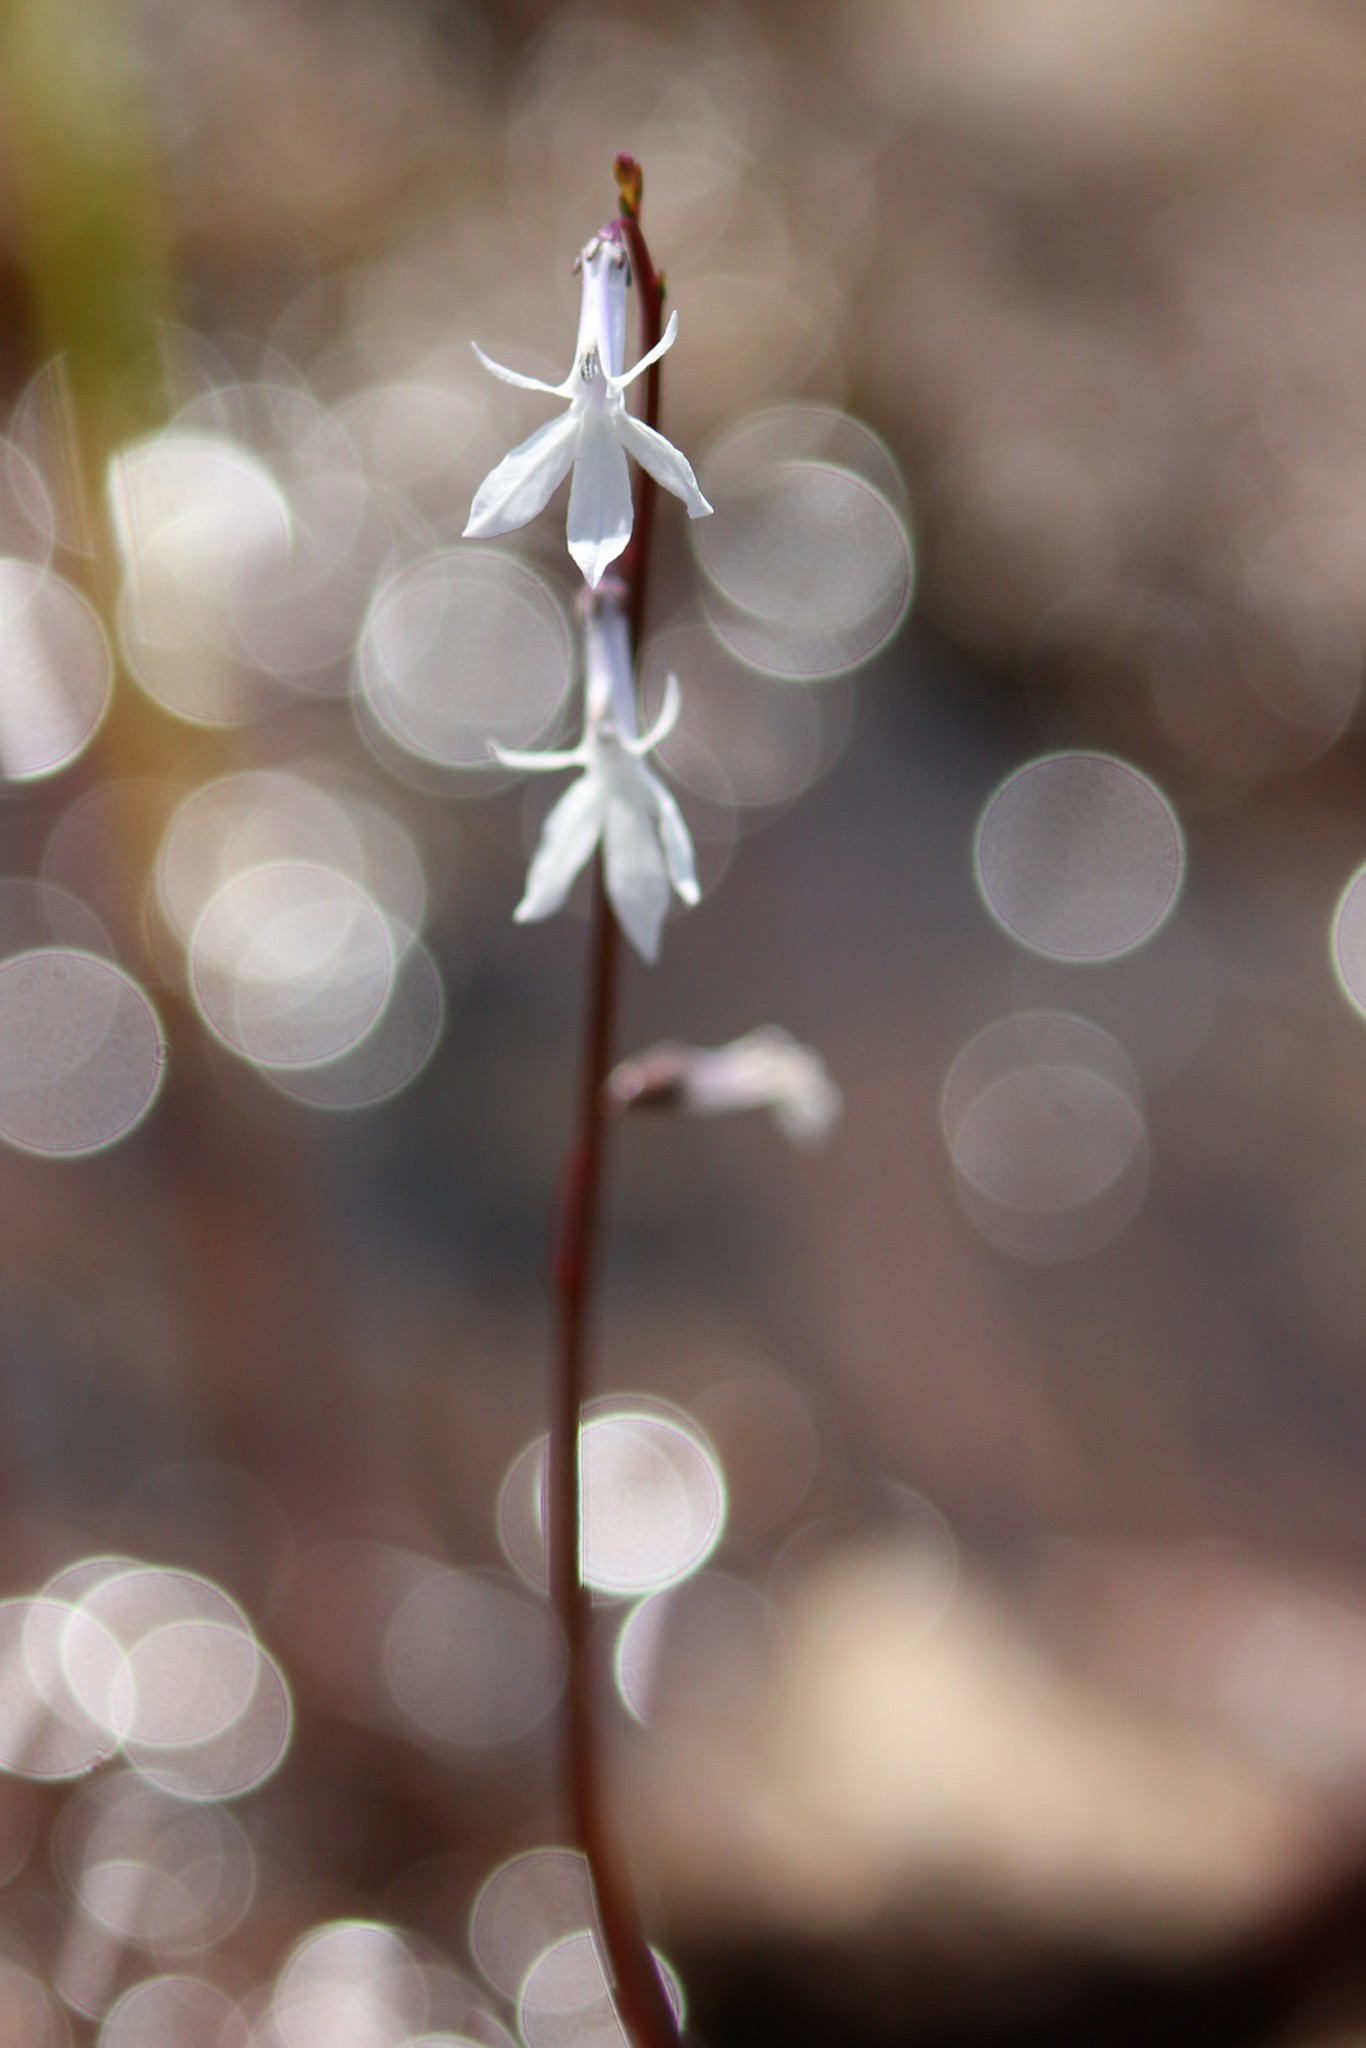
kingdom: Plantae
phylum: Tracheophyta
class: Magnoliopsida
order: Asterales
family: Campanulaceae
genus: Lobelia
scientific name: Lobelia dortmanna
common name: Water lobelia
